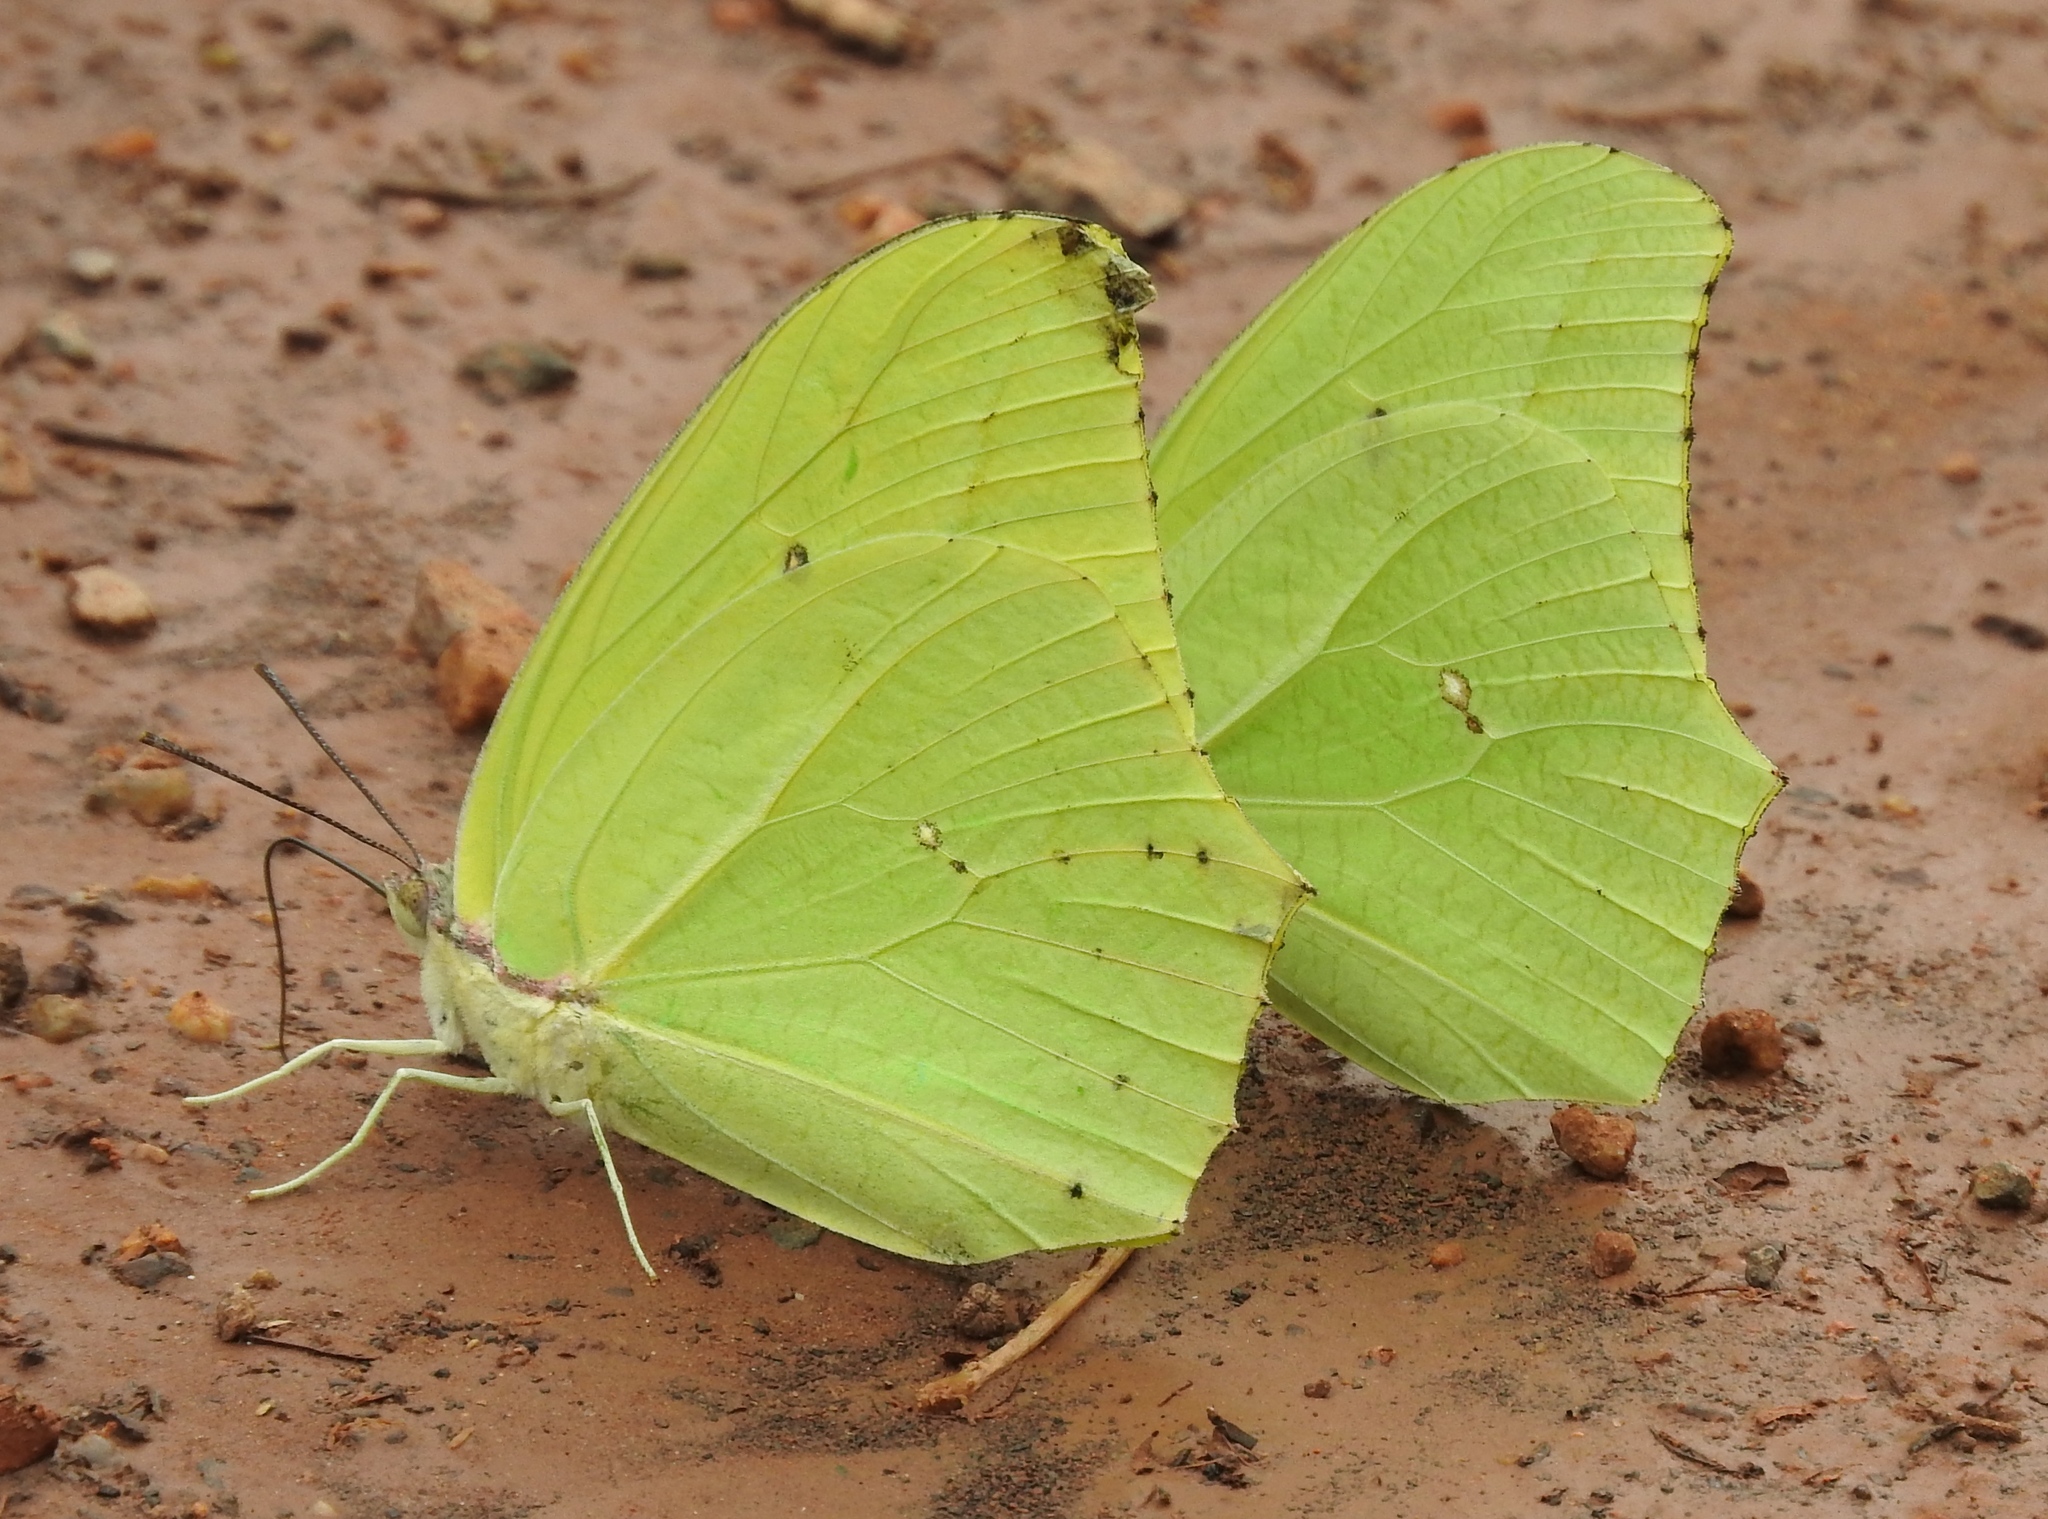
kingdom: Animalia
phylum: Arthropoda
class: Insecta
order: Lepidoptera
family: Pieridae
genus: Anteos
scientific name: Anteos maerula
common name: Angled sulphur
